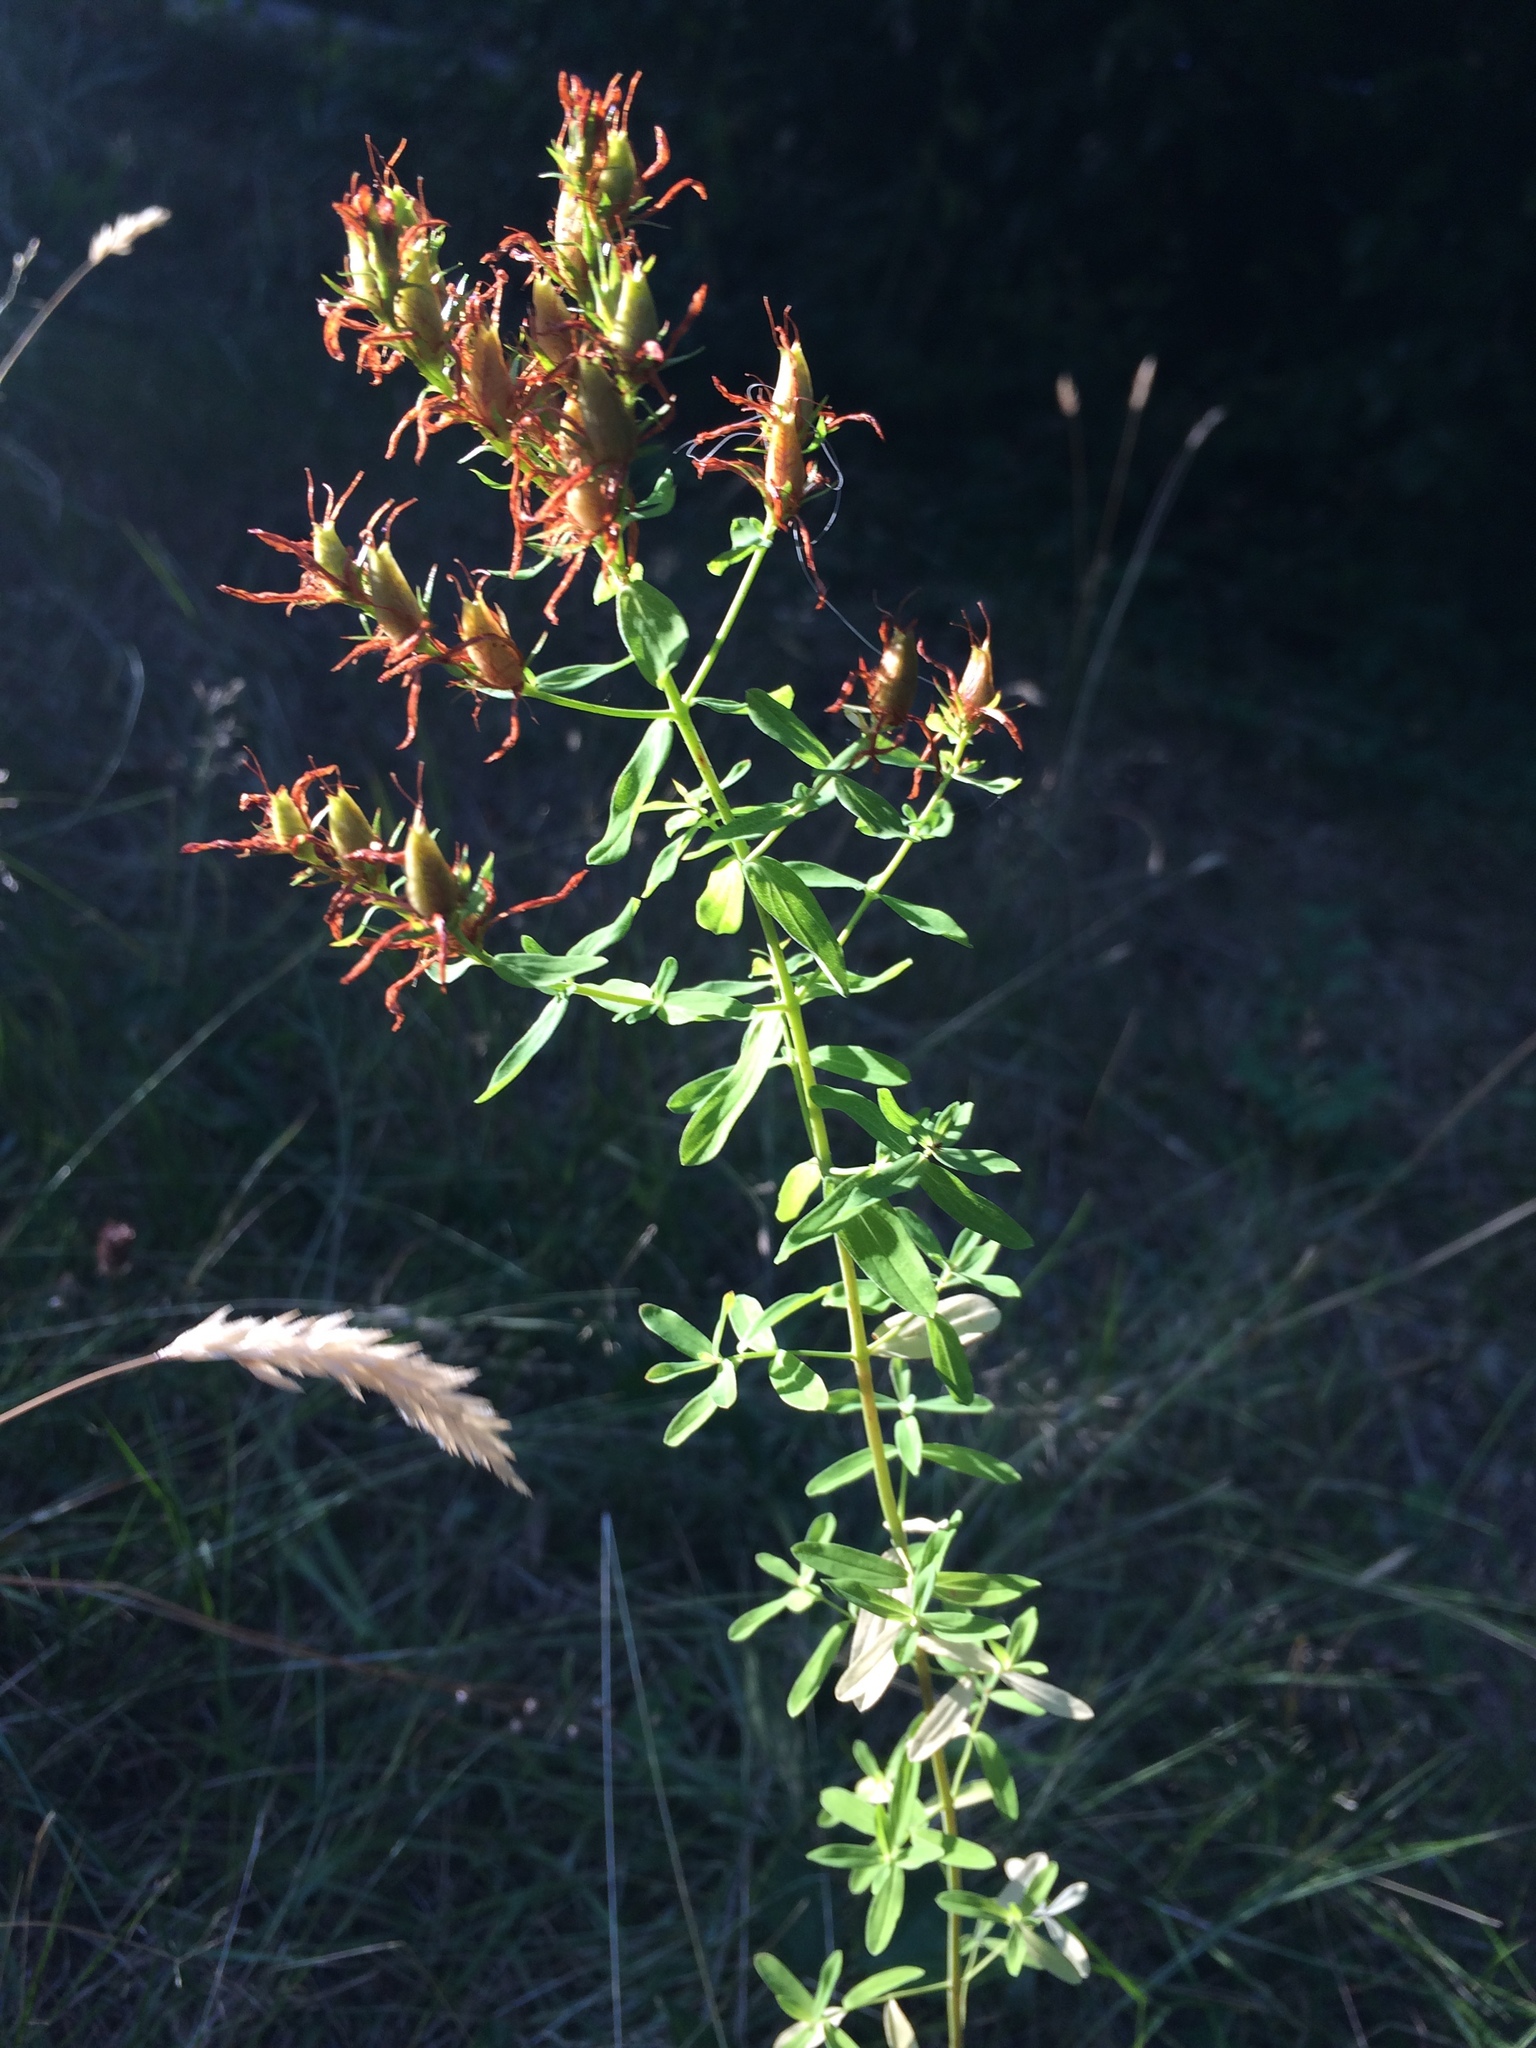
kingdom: Plantae
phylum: Tracheophyta
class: Magnoliopsida
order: Malpighiales
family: Hypericaceae
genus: Hypericum
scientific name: Hypericum perforatum
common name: Common st. johnswort
